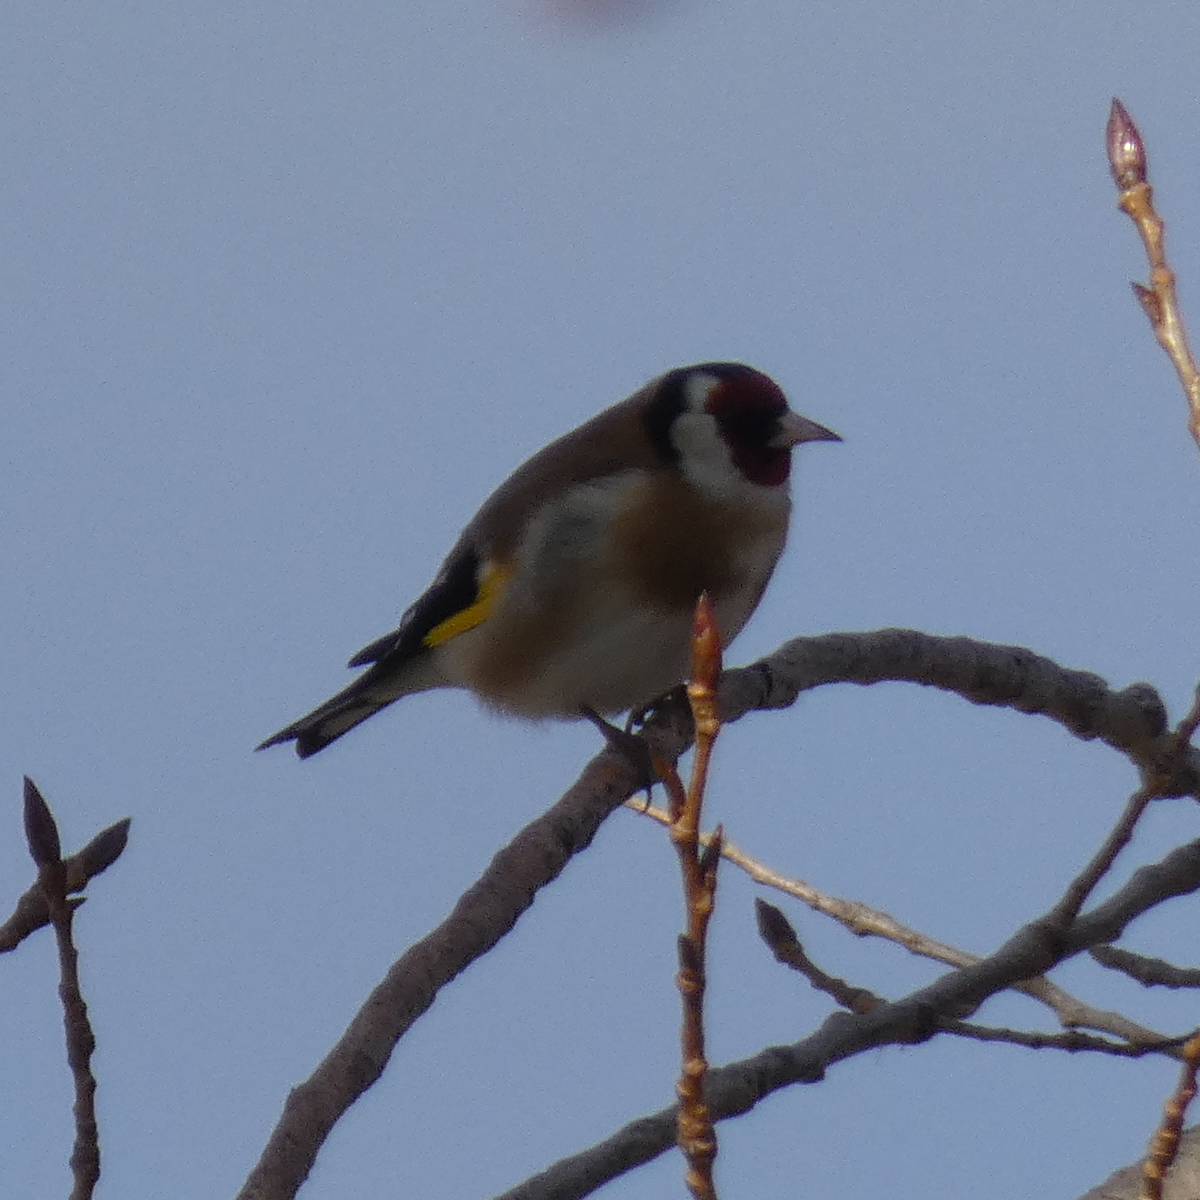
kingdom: Animalia
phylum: Chordata
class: Aves
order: Passeriformes
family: Fringillidae
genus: Carduelis
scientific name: Carduelis carduelis
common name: European goldfinch
